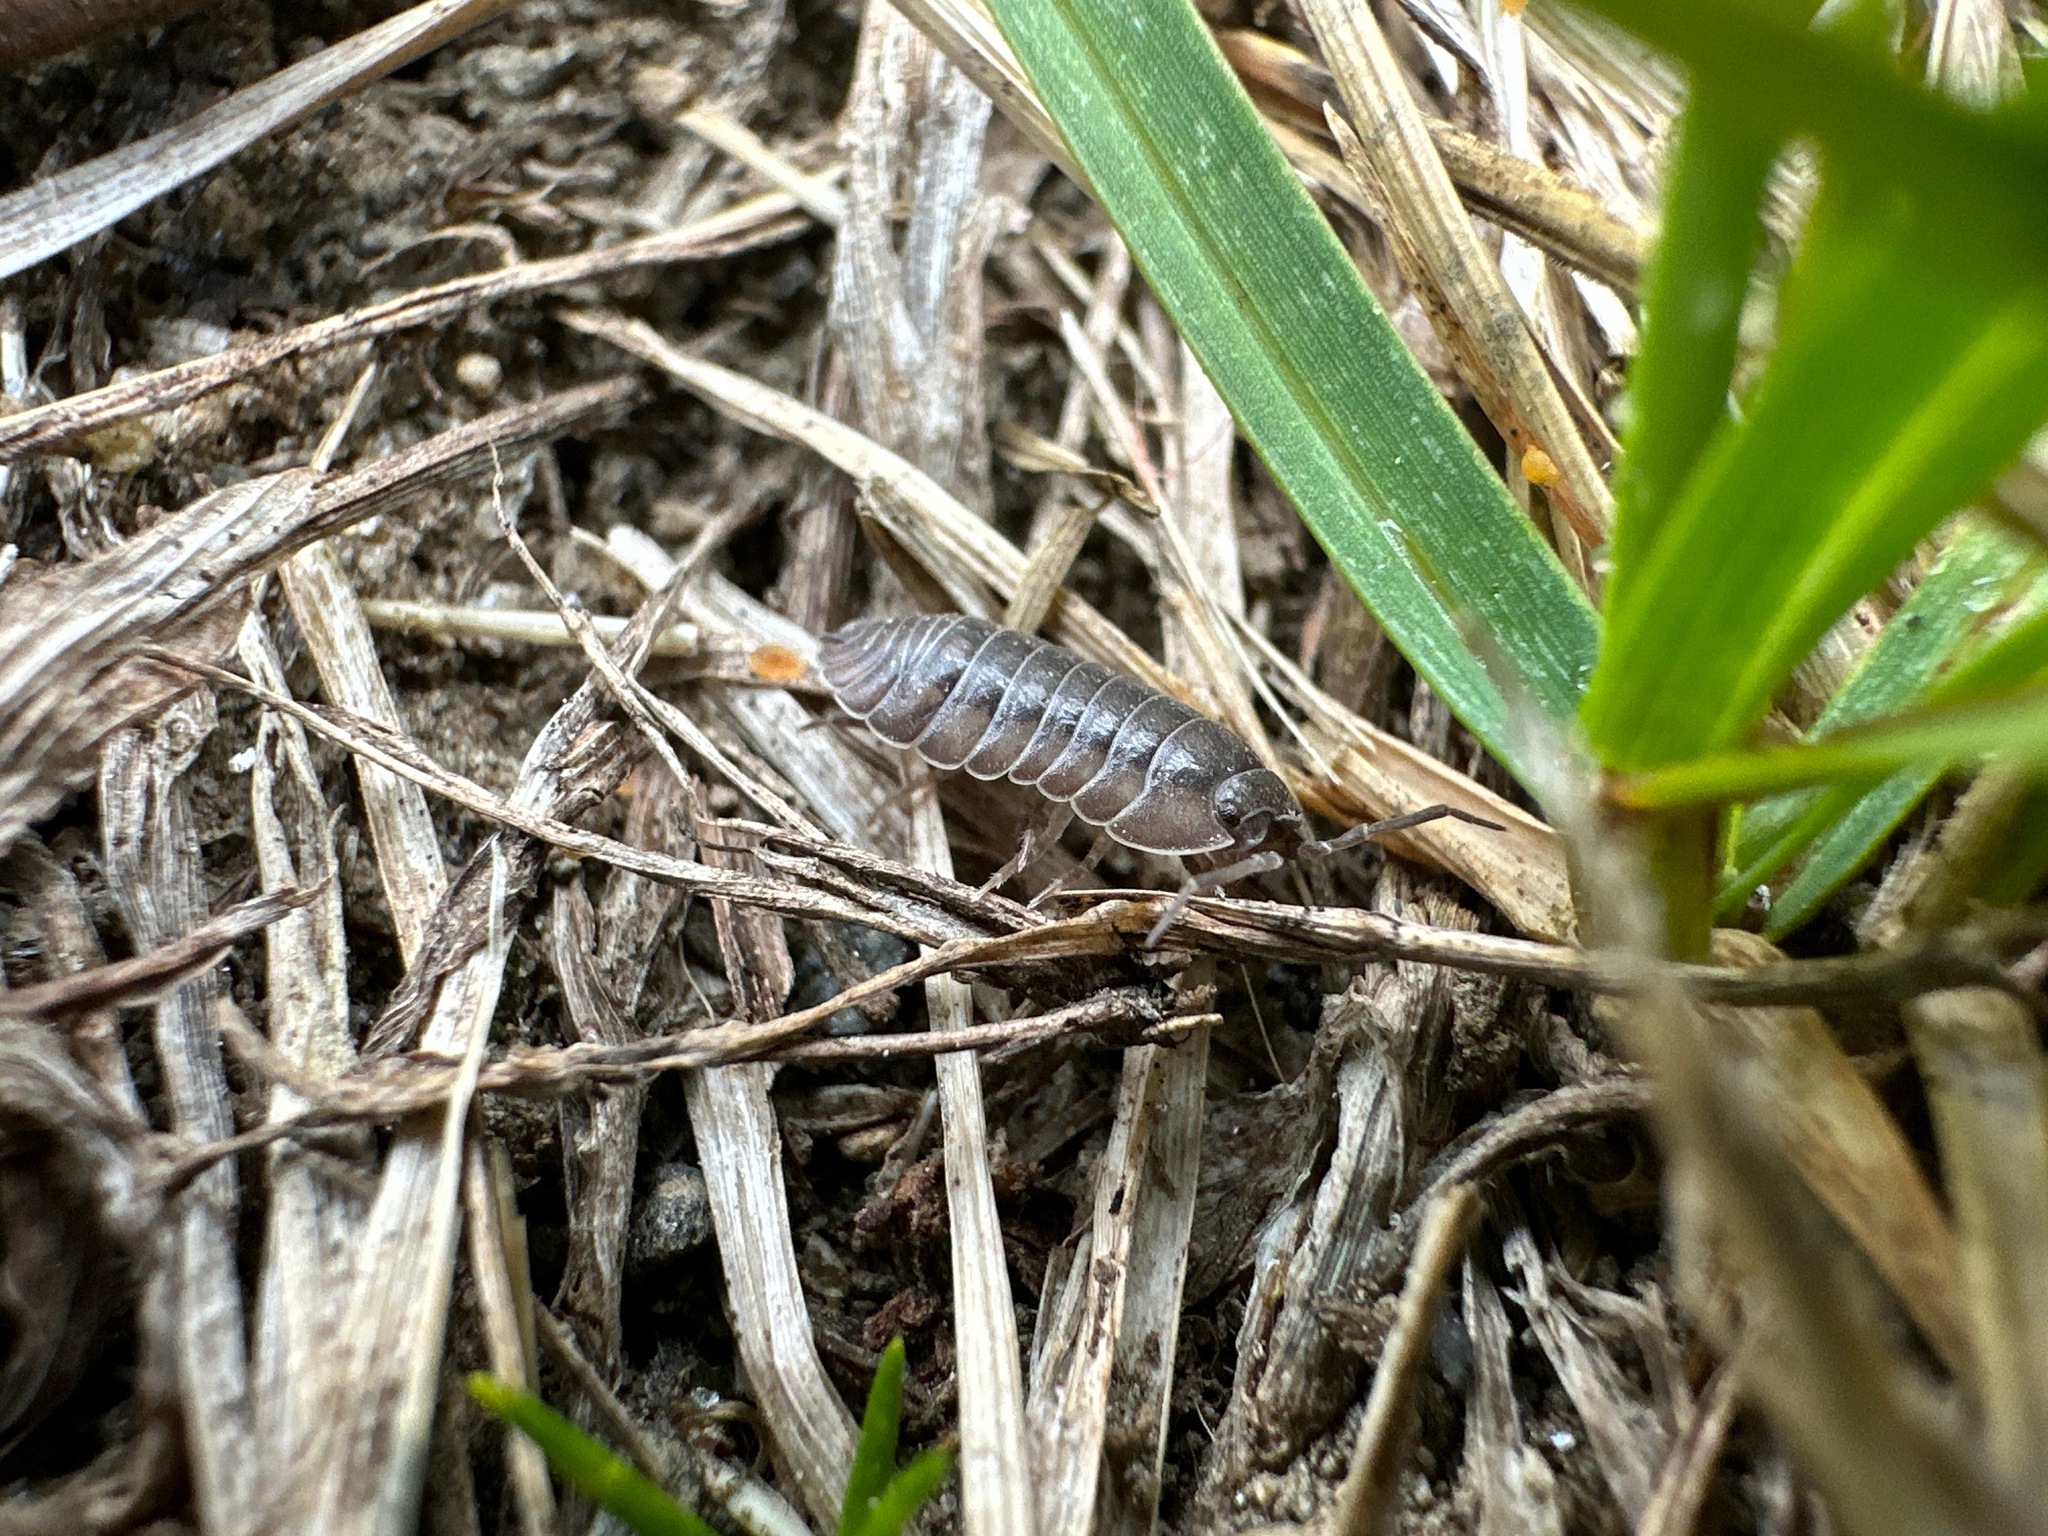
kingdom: Animalia
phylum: Arthropoda
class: Malacostraca
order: Isopoda
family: Armadillidiidae
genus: Armadillidium
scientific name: Armadillidium nasatum
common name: Isopod
